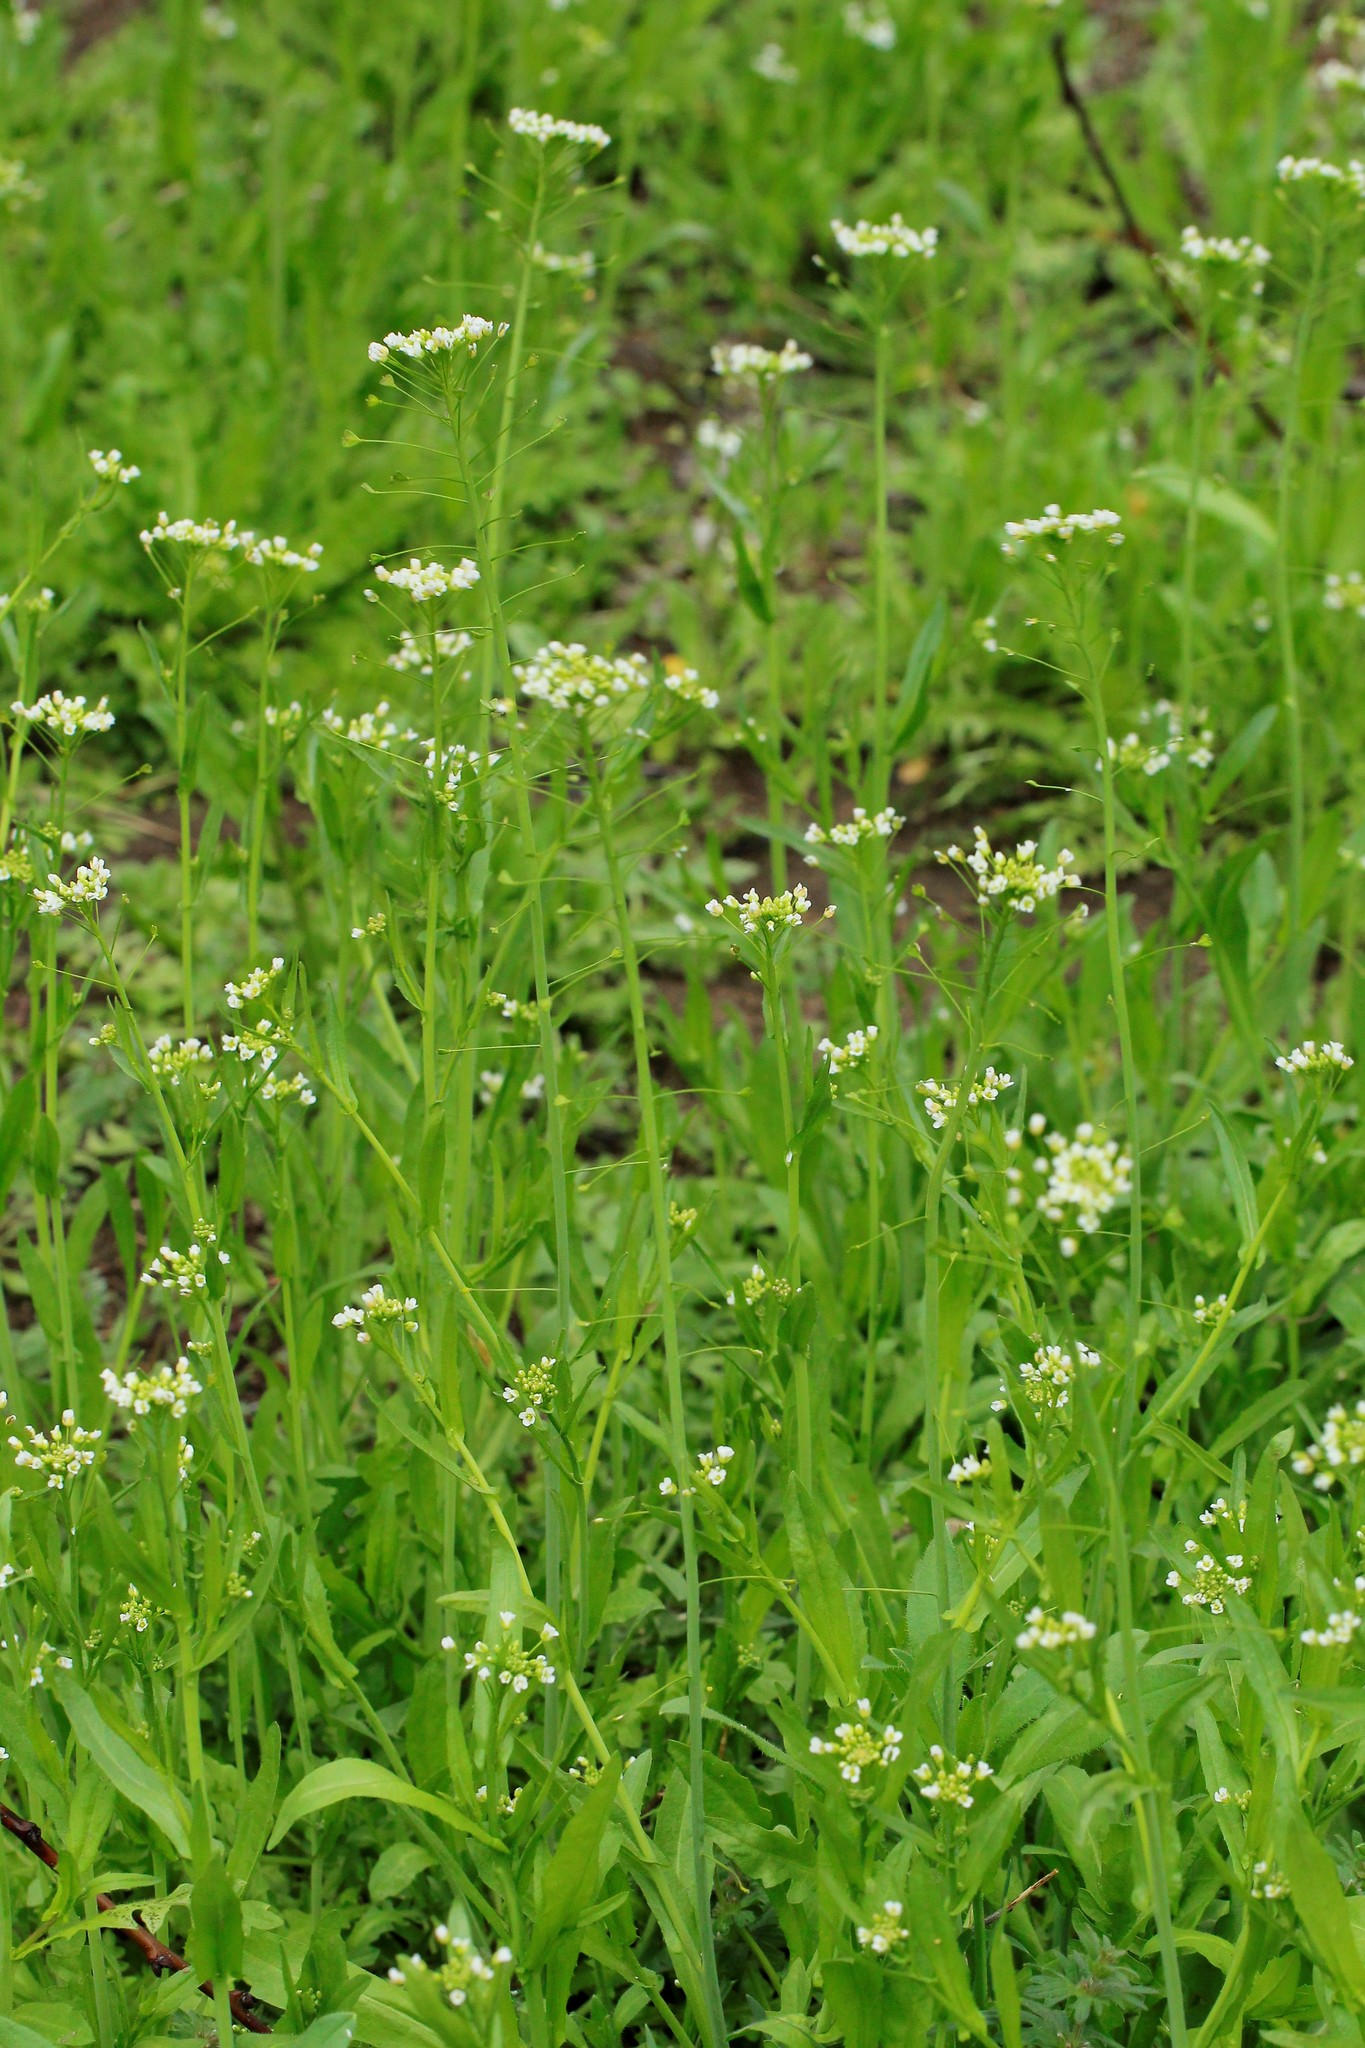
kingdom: Plantae
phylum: Tracheophyta
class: Magnoliopsida
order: Brassicales
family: Brassicaceae
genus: Capsella
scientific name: Capsella bursa-pastoris
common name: Shepherd's purse
